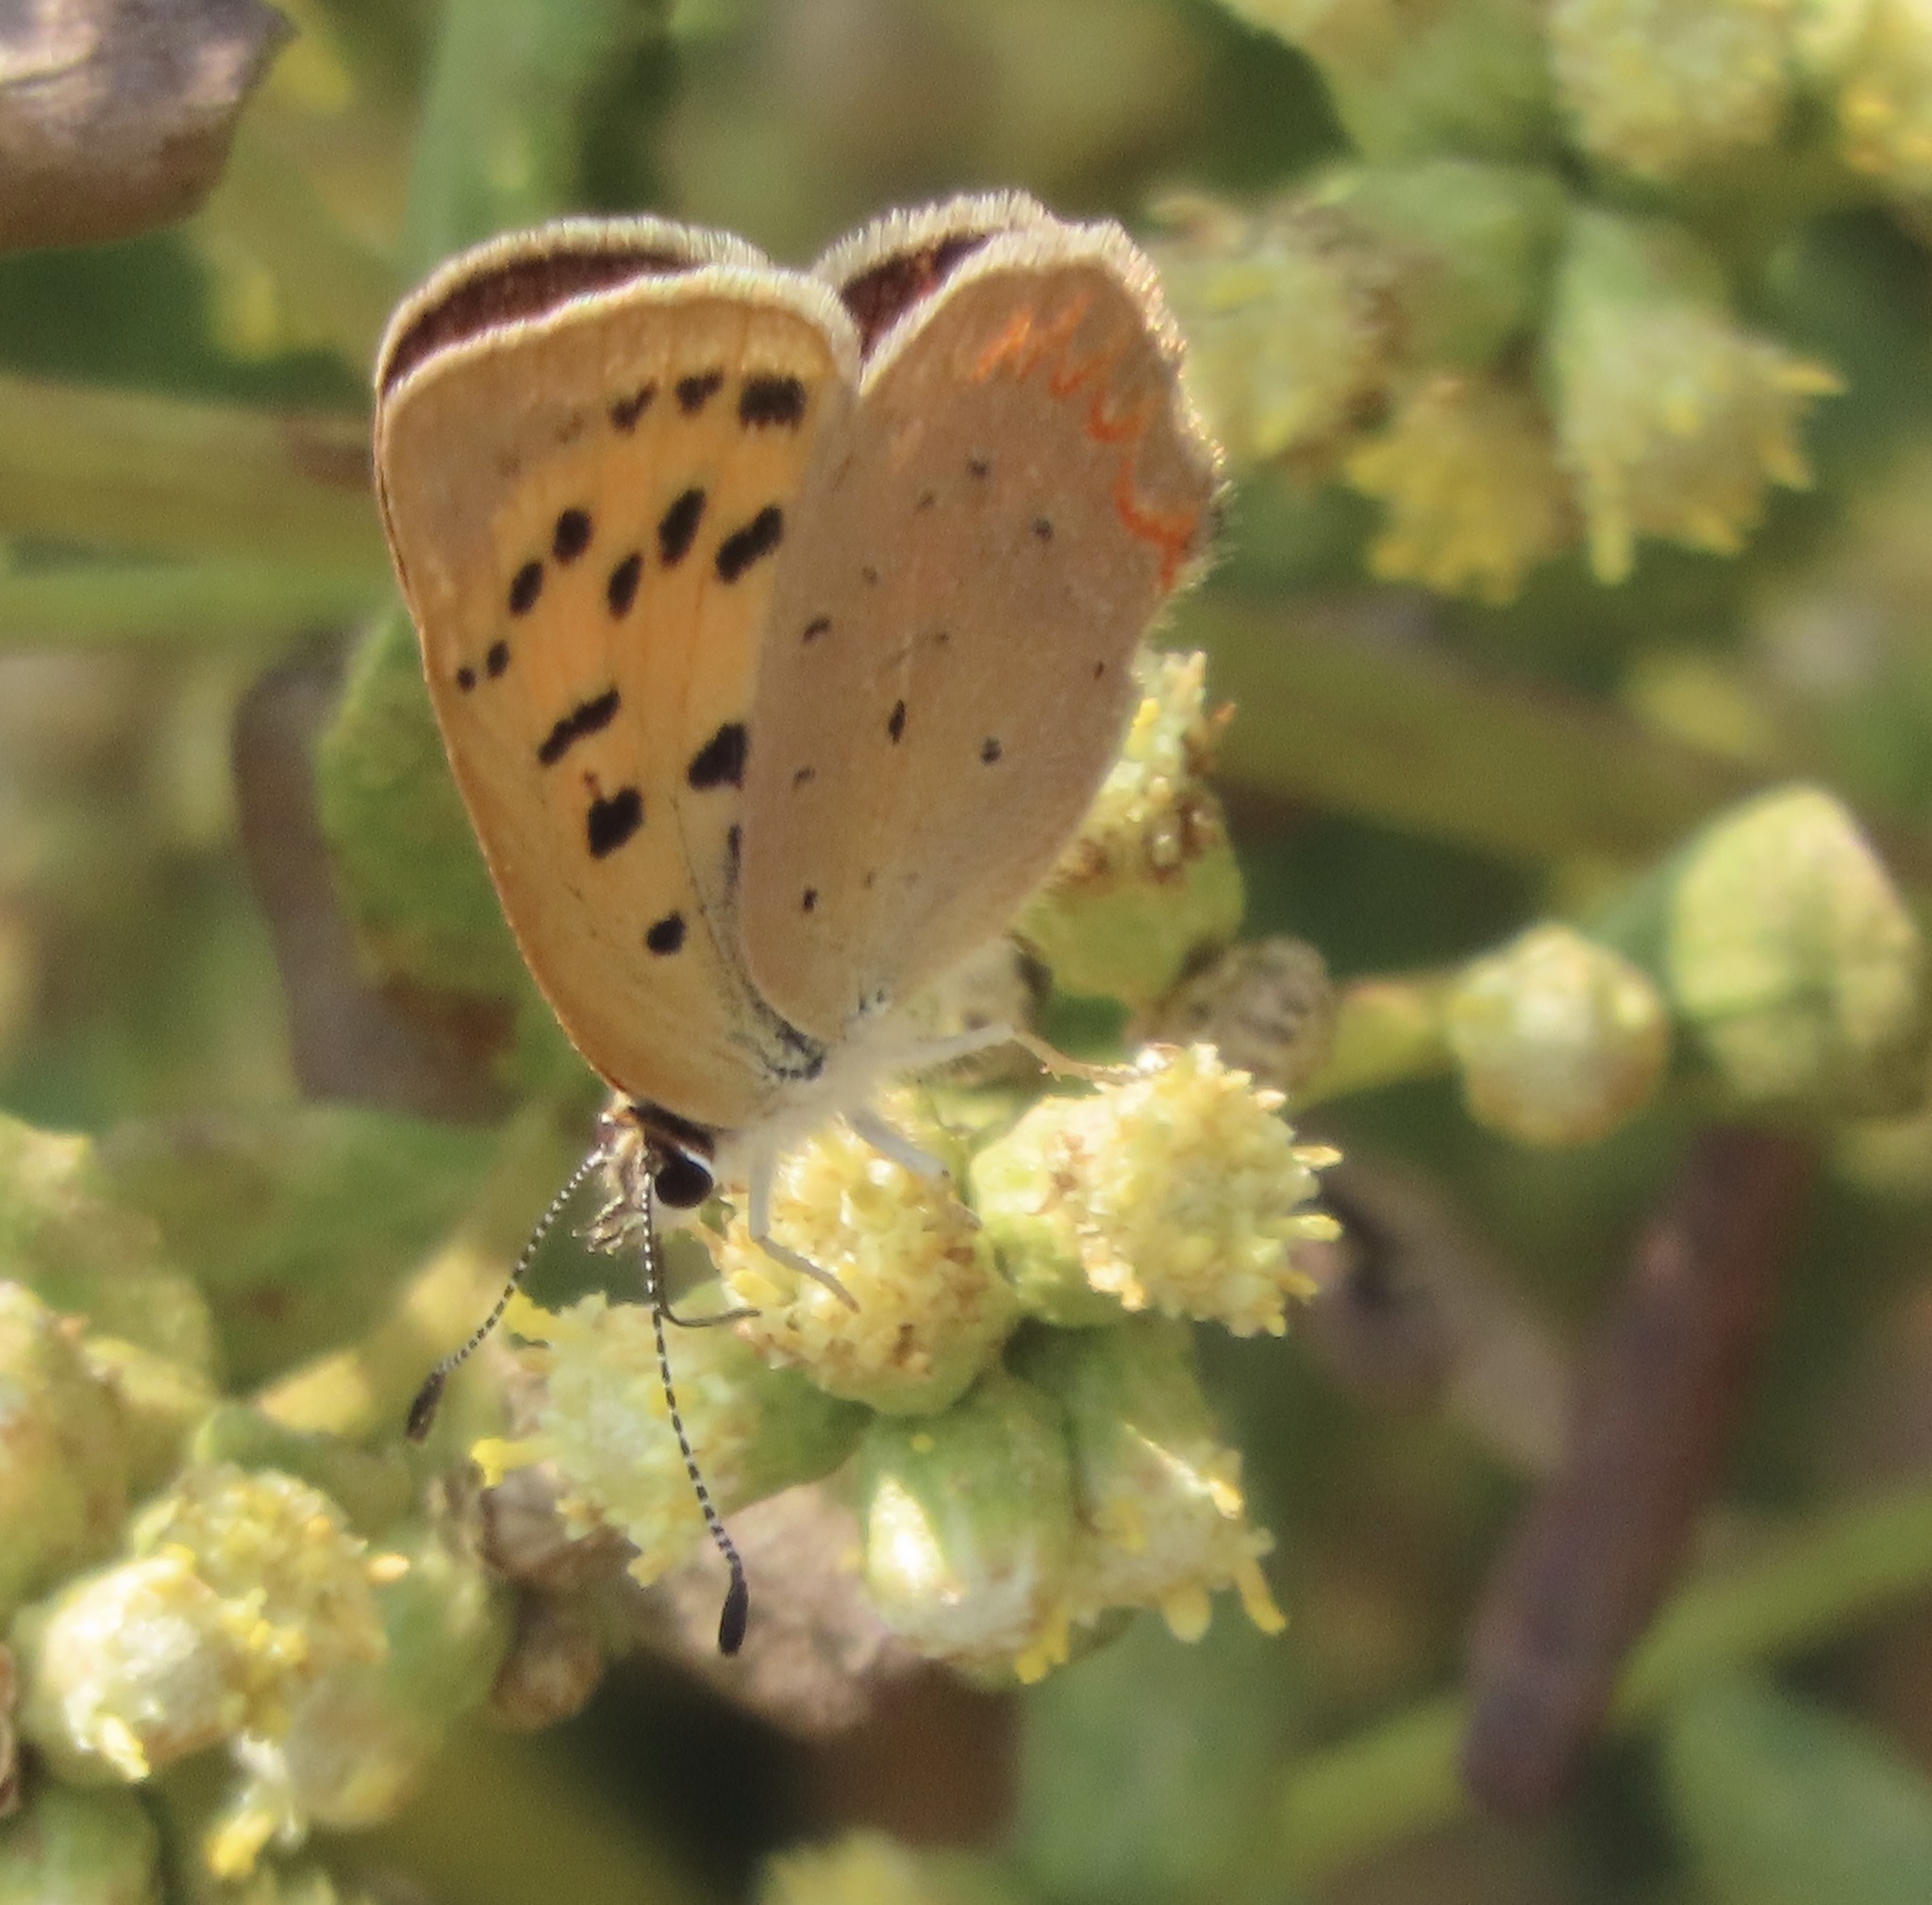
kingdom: Animalia
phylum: Arthropoda
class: Insecta
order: Lepidoptera
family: Lycaenidae
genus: Tharsalea
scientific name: Tharsalea helloides
